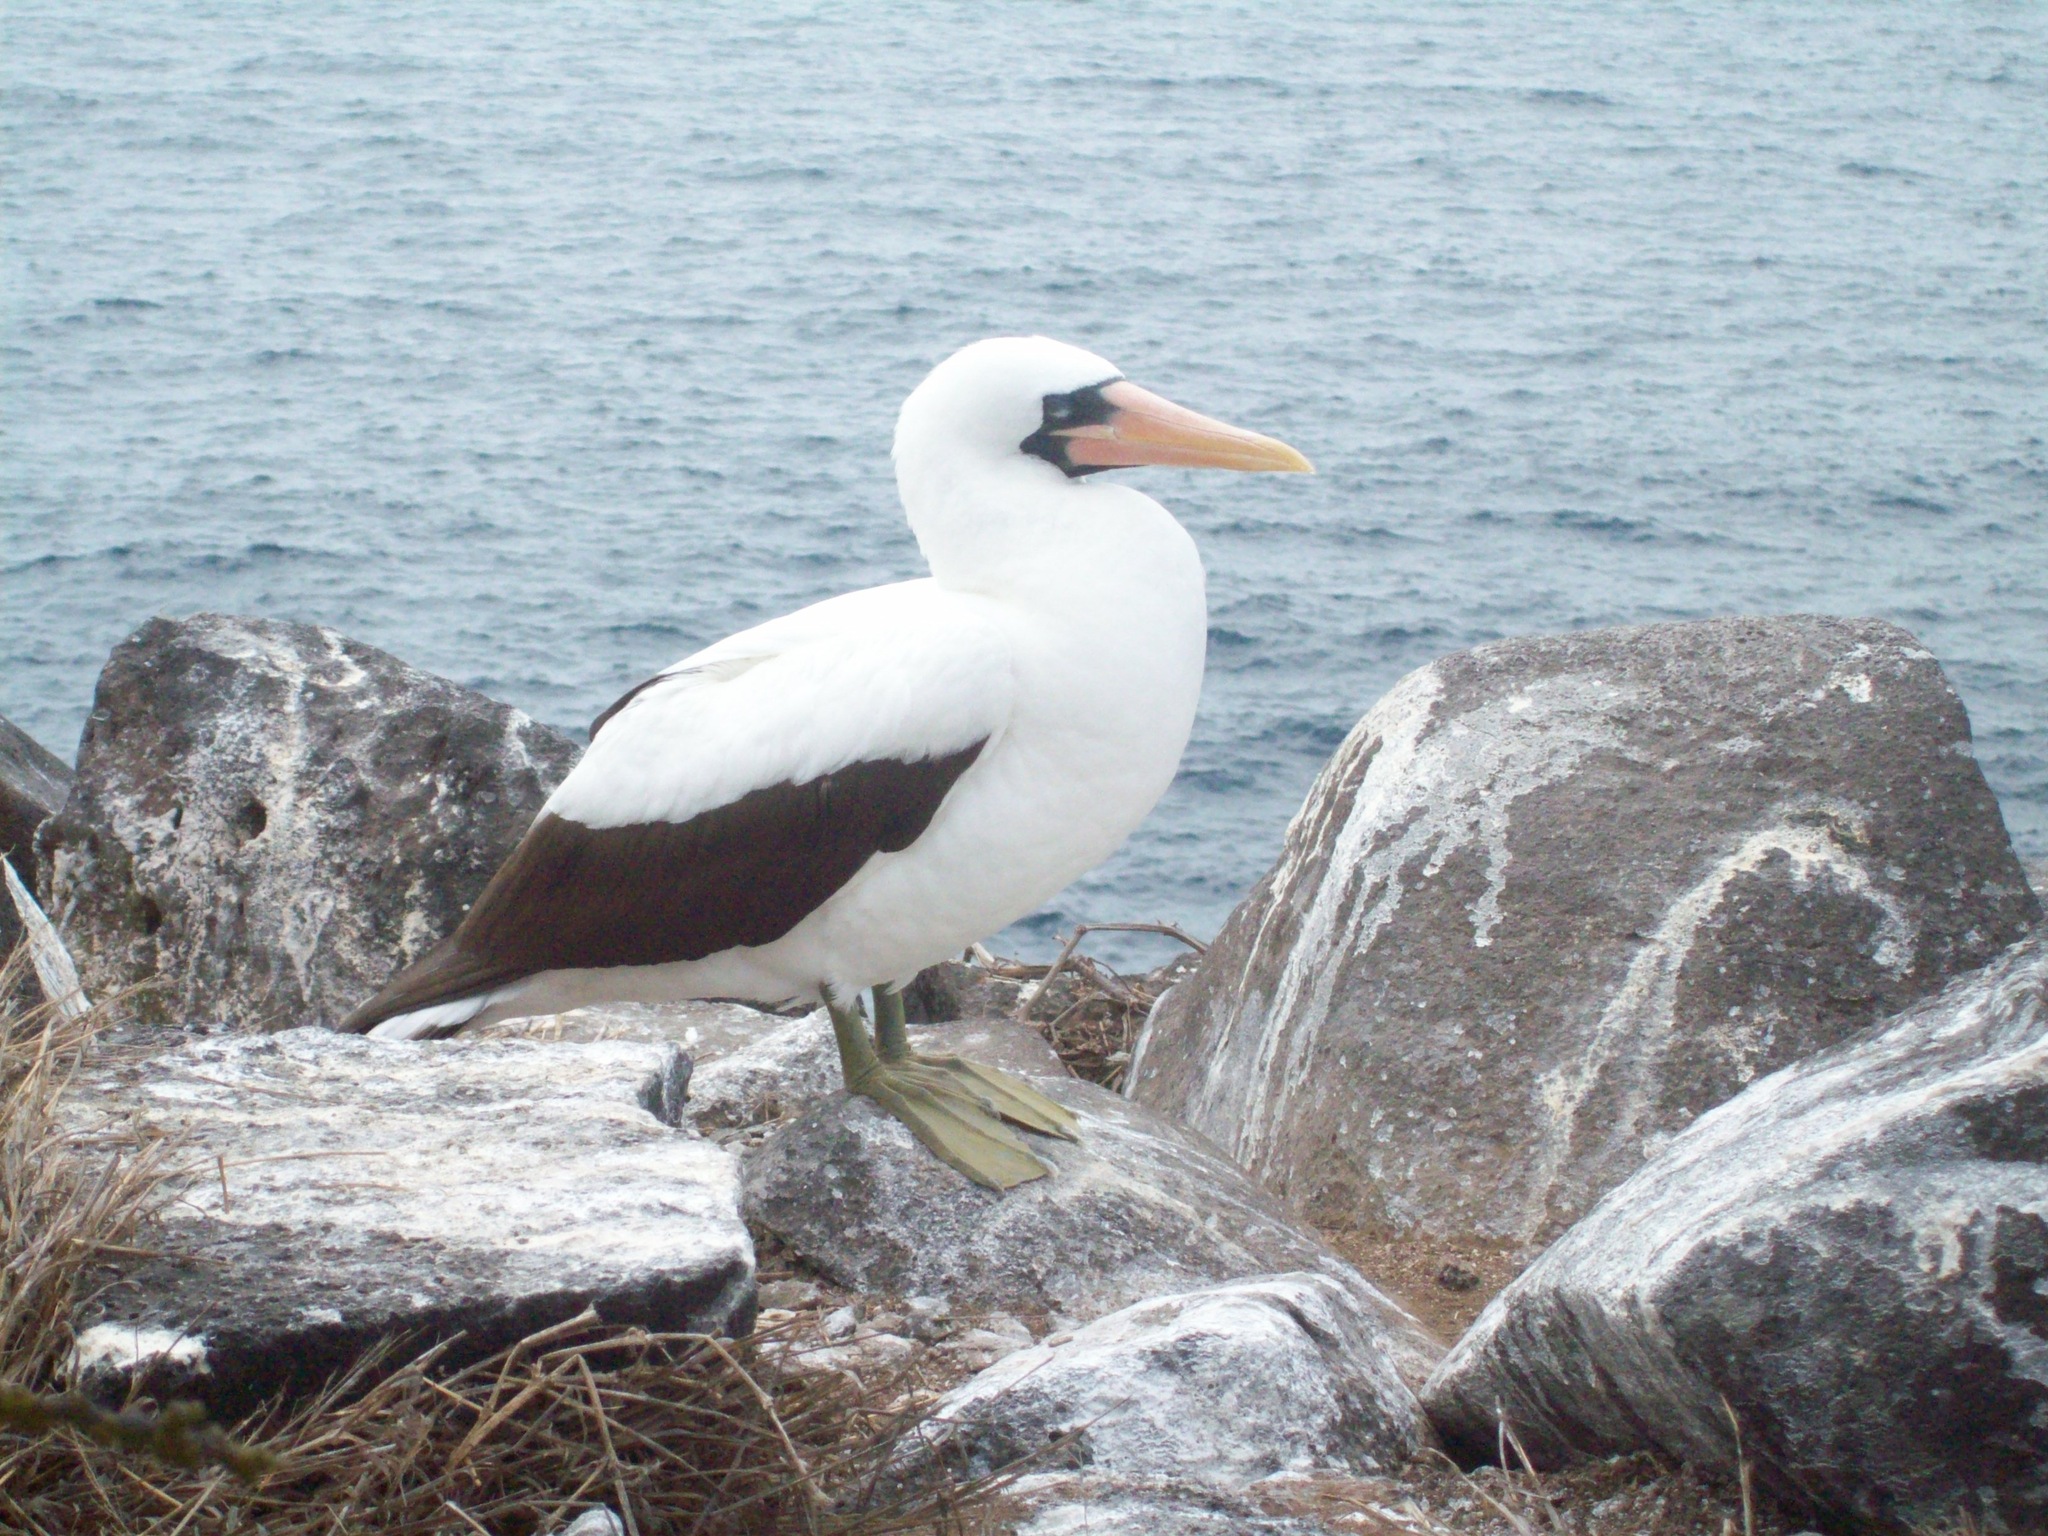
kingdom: Animalia
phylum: Chordata
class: Aves
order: Suliformes
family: Sulidae
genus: Sula
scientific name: Sula granti
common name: Nazca booby
